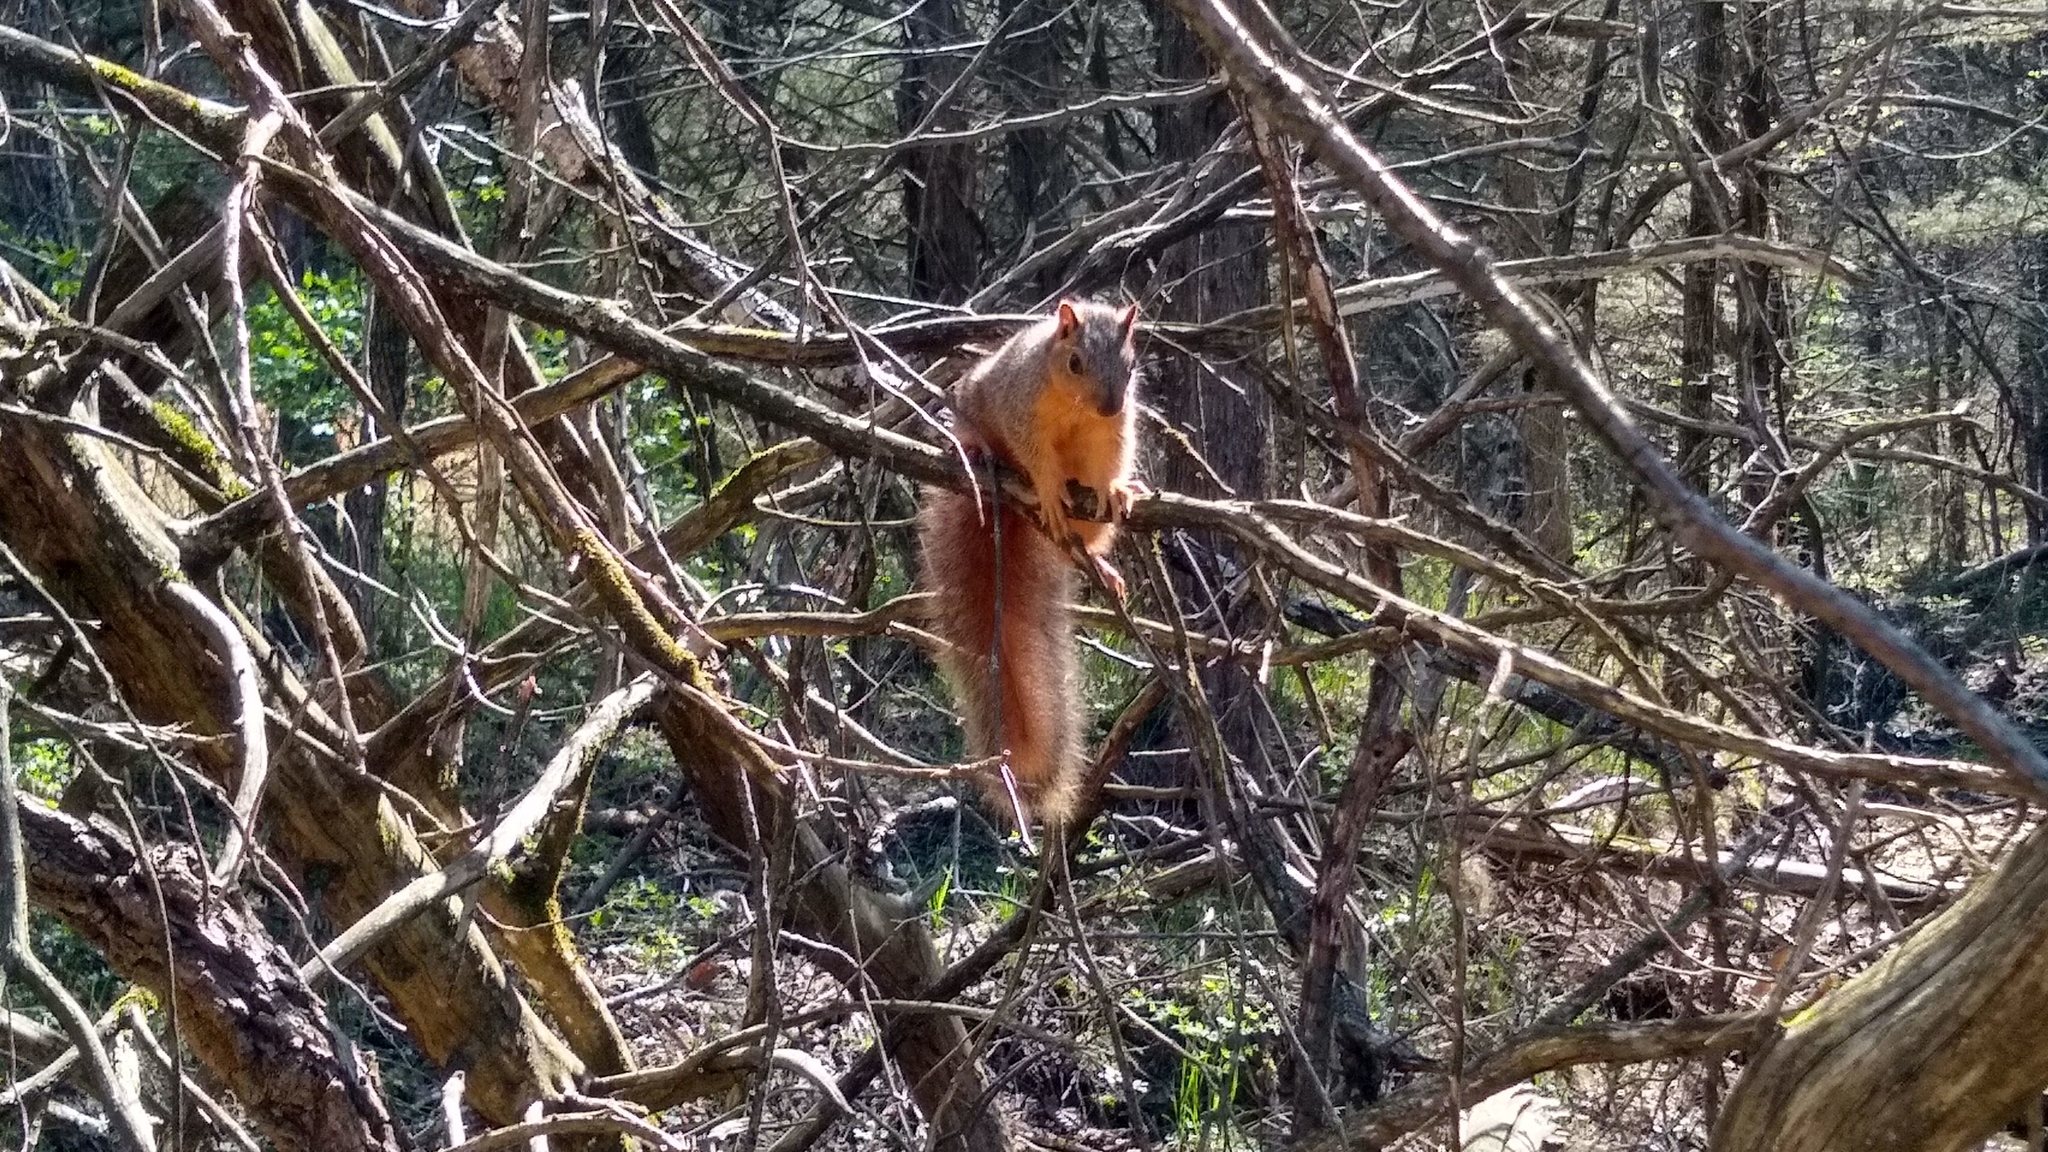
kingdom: Animalia
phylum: Chordata
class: Mammalia
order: Rodentia
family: Sciuridae
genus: Sciurus
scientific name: Sciurus niger
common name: Fox squirrel
